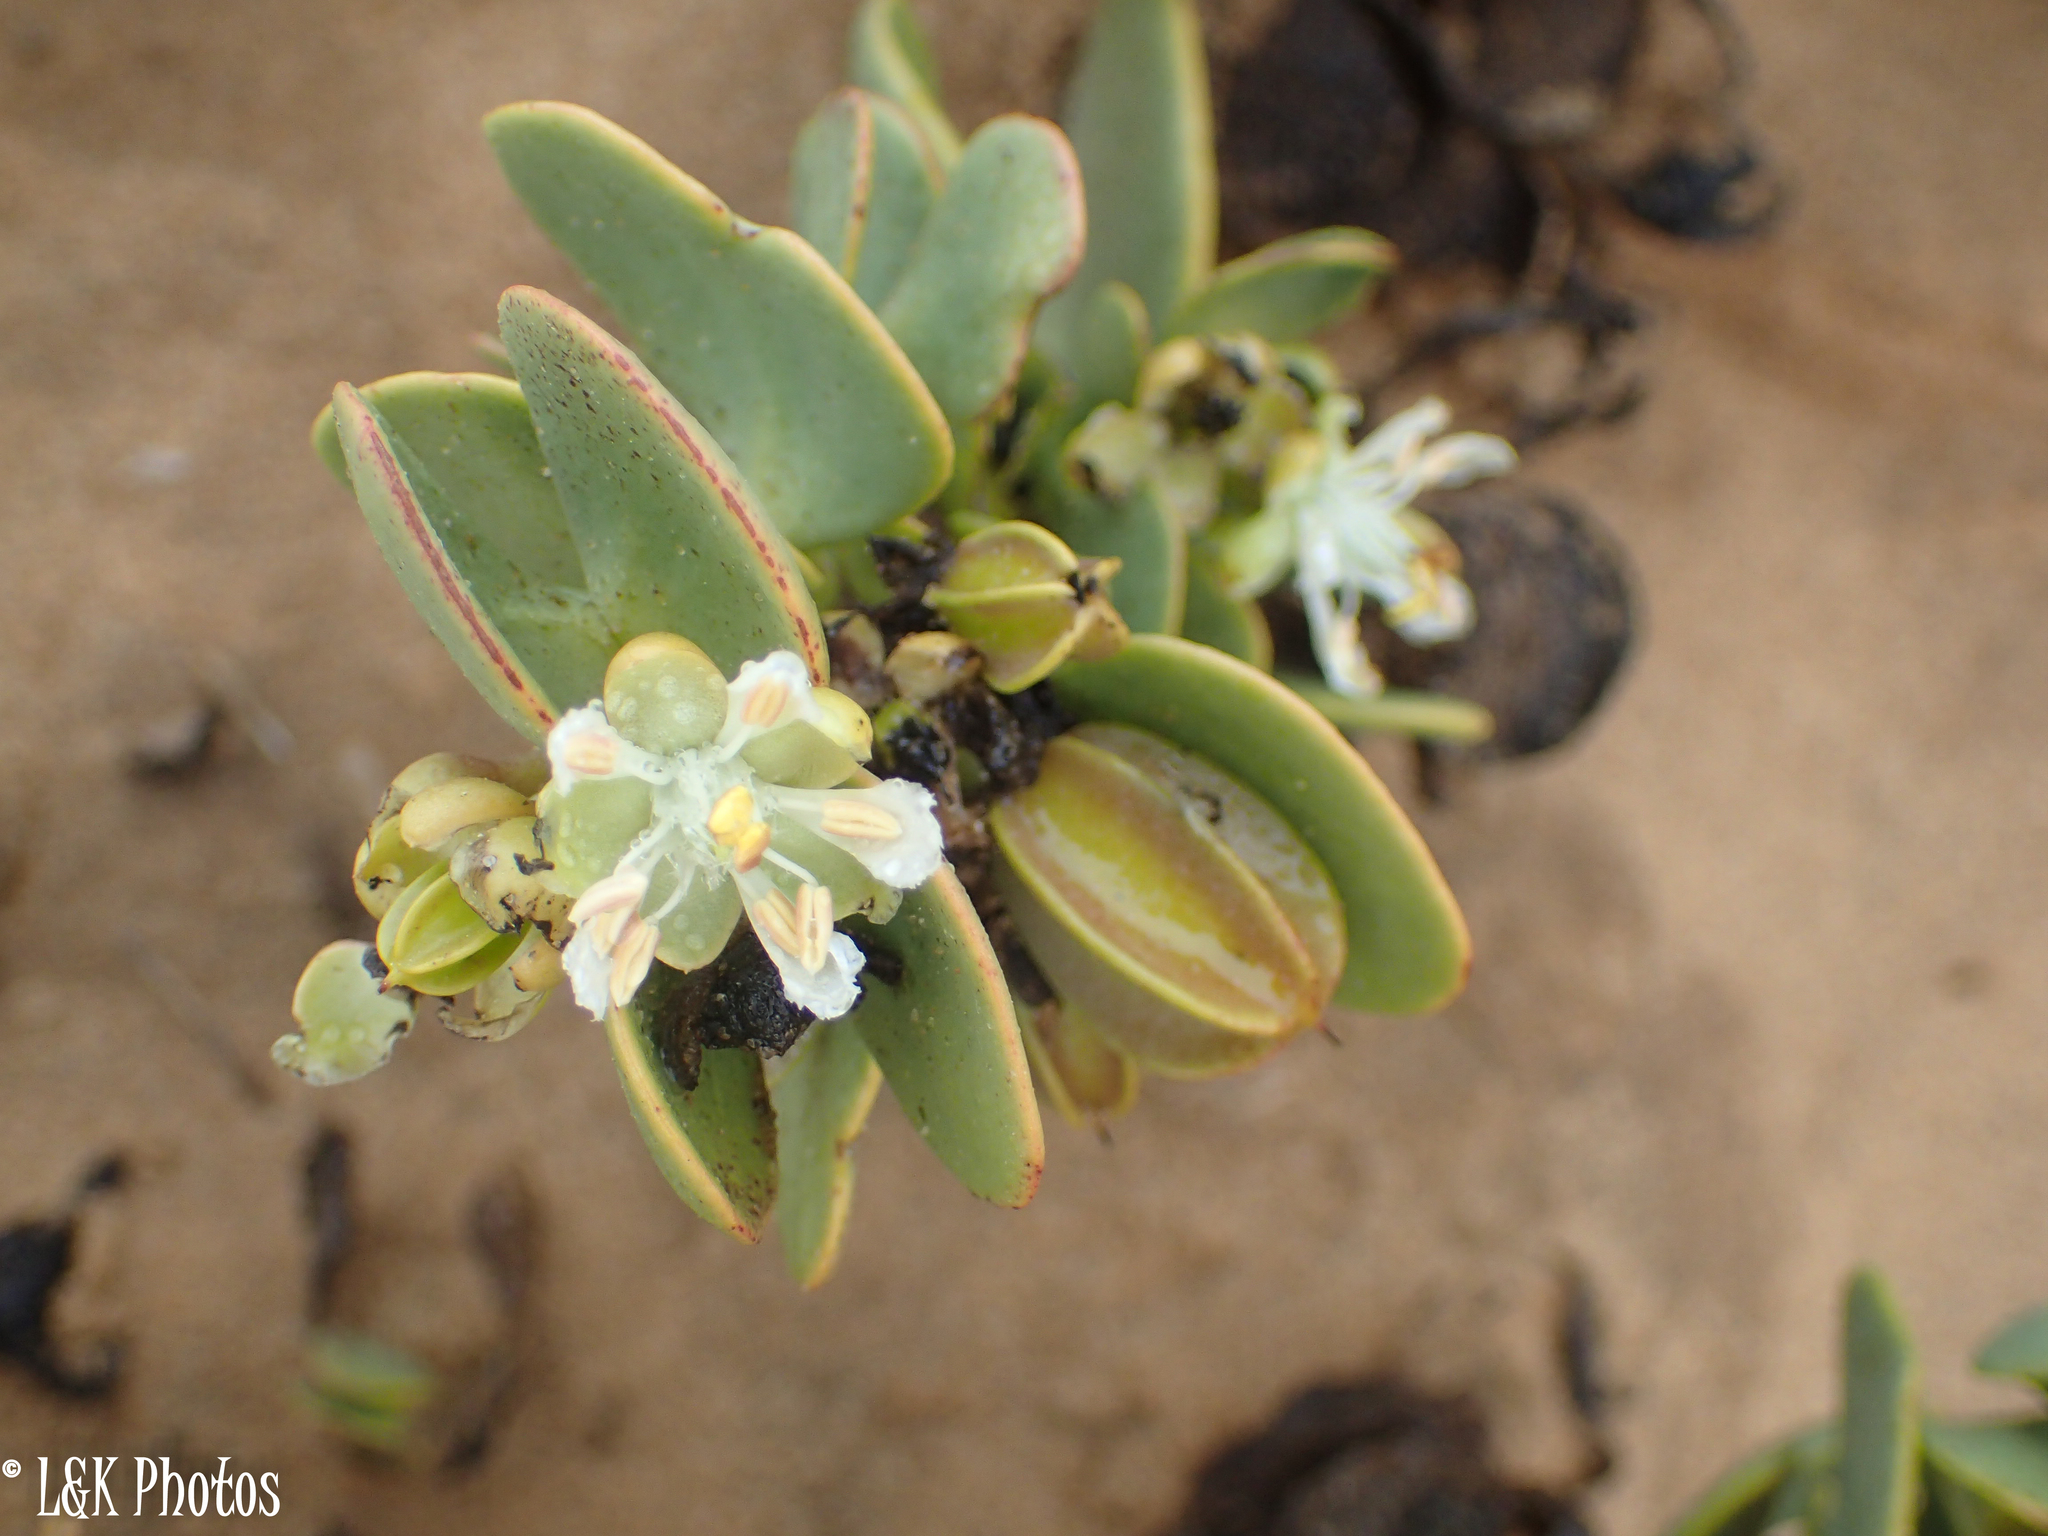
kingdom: Plantae
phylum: Tracheophyta
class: Magnoliopsida
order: Zygophyllales
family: Zygophyllaceae
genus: Tetraena
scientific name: Tetraena stapfii
